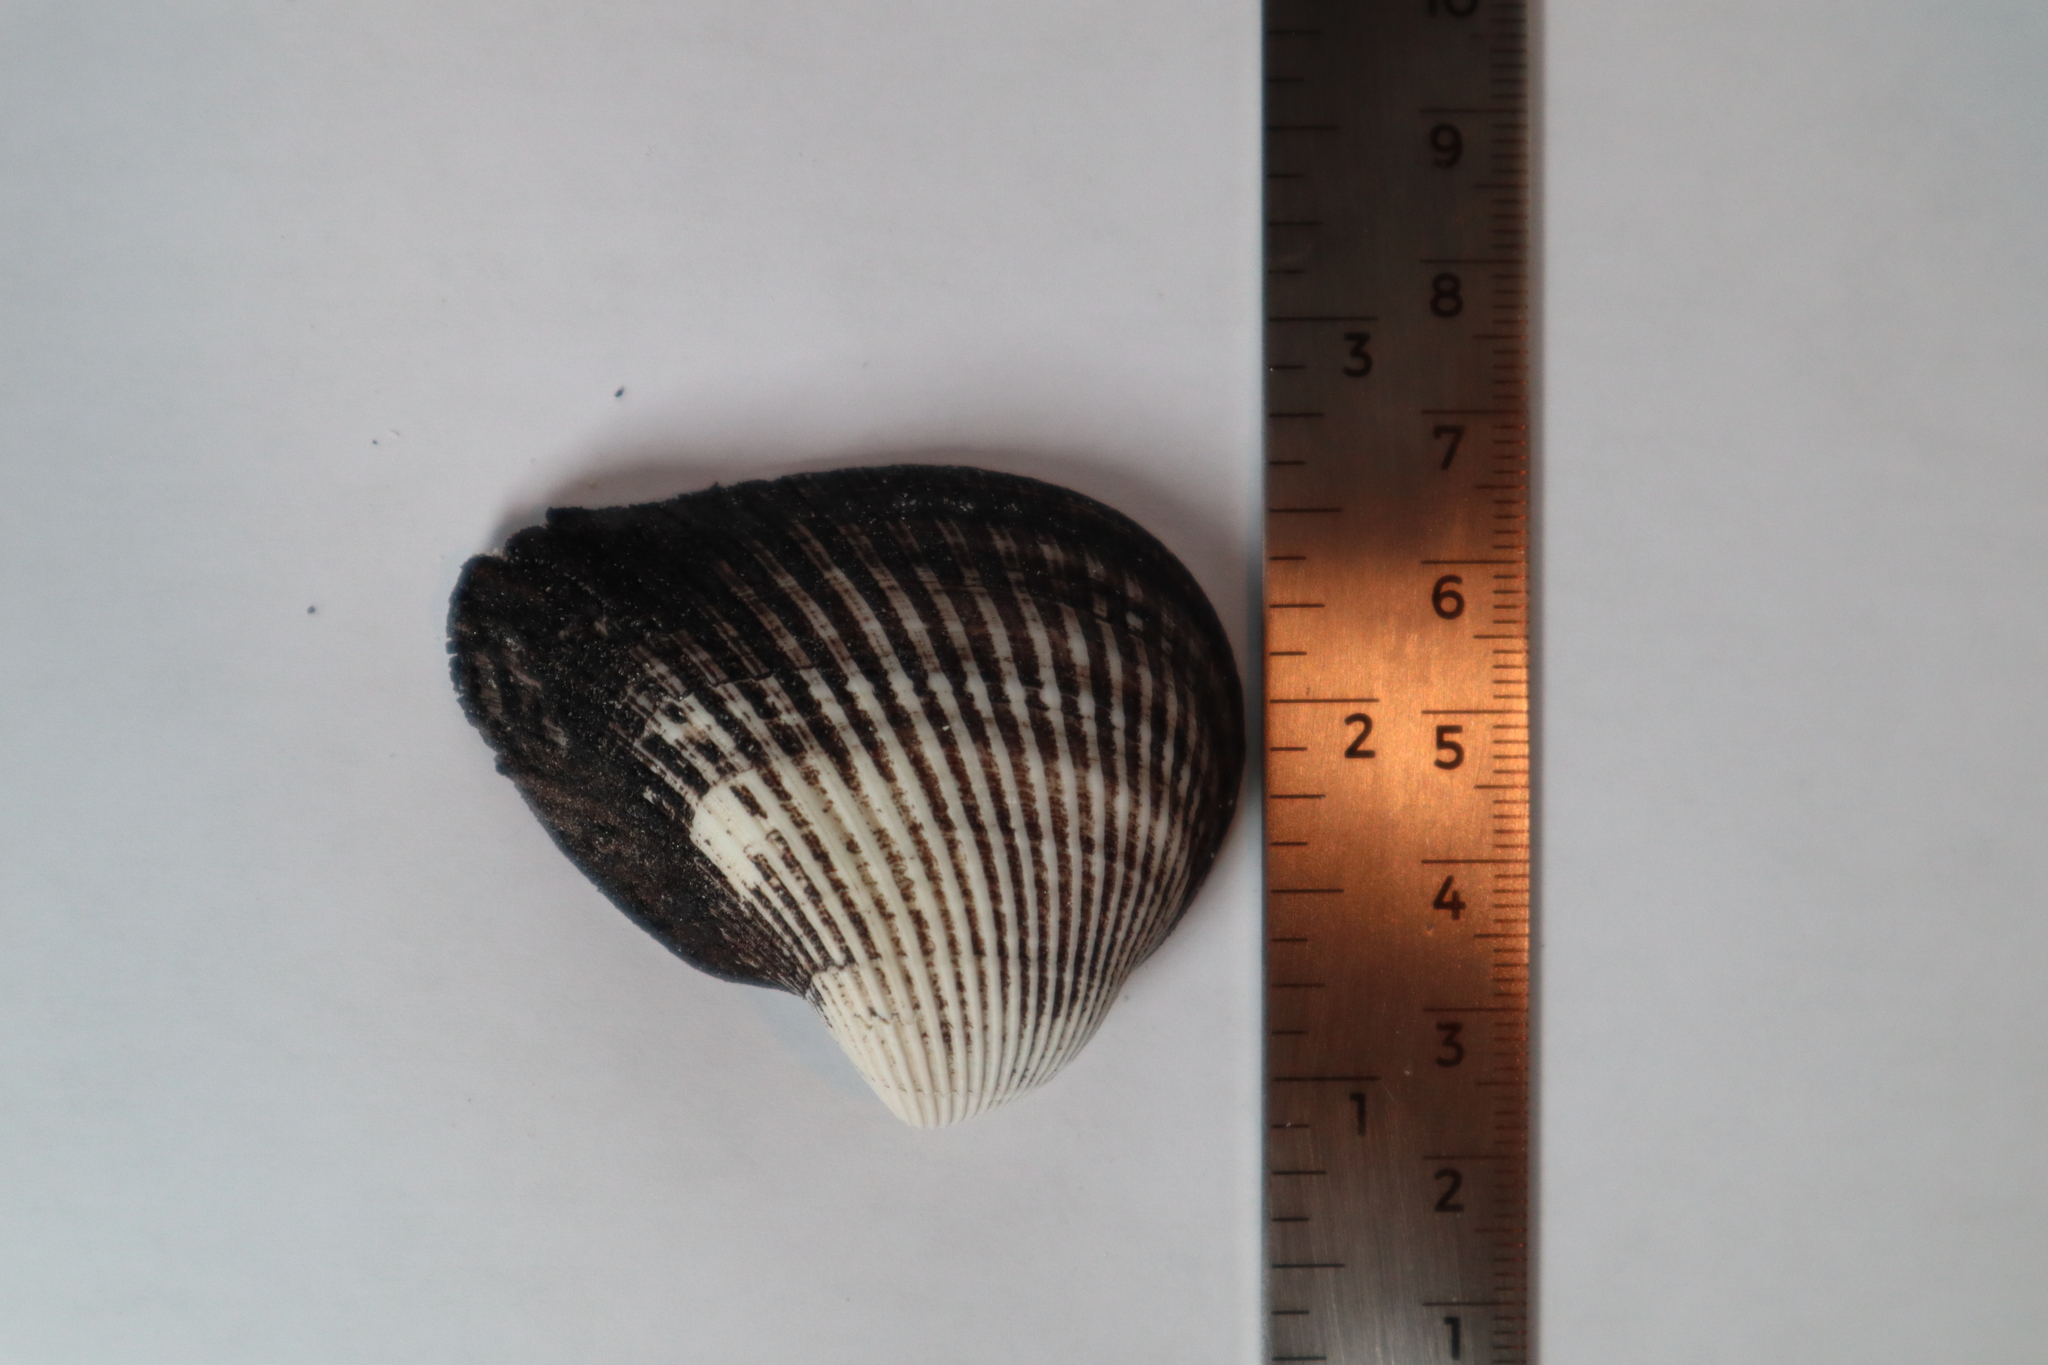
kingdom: Animalia
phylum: Mollusca
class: Bivalvia
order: Arcida
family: Noetiidae
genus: Noetia
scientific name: Noetia ponderosa
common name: Ponderous ark
